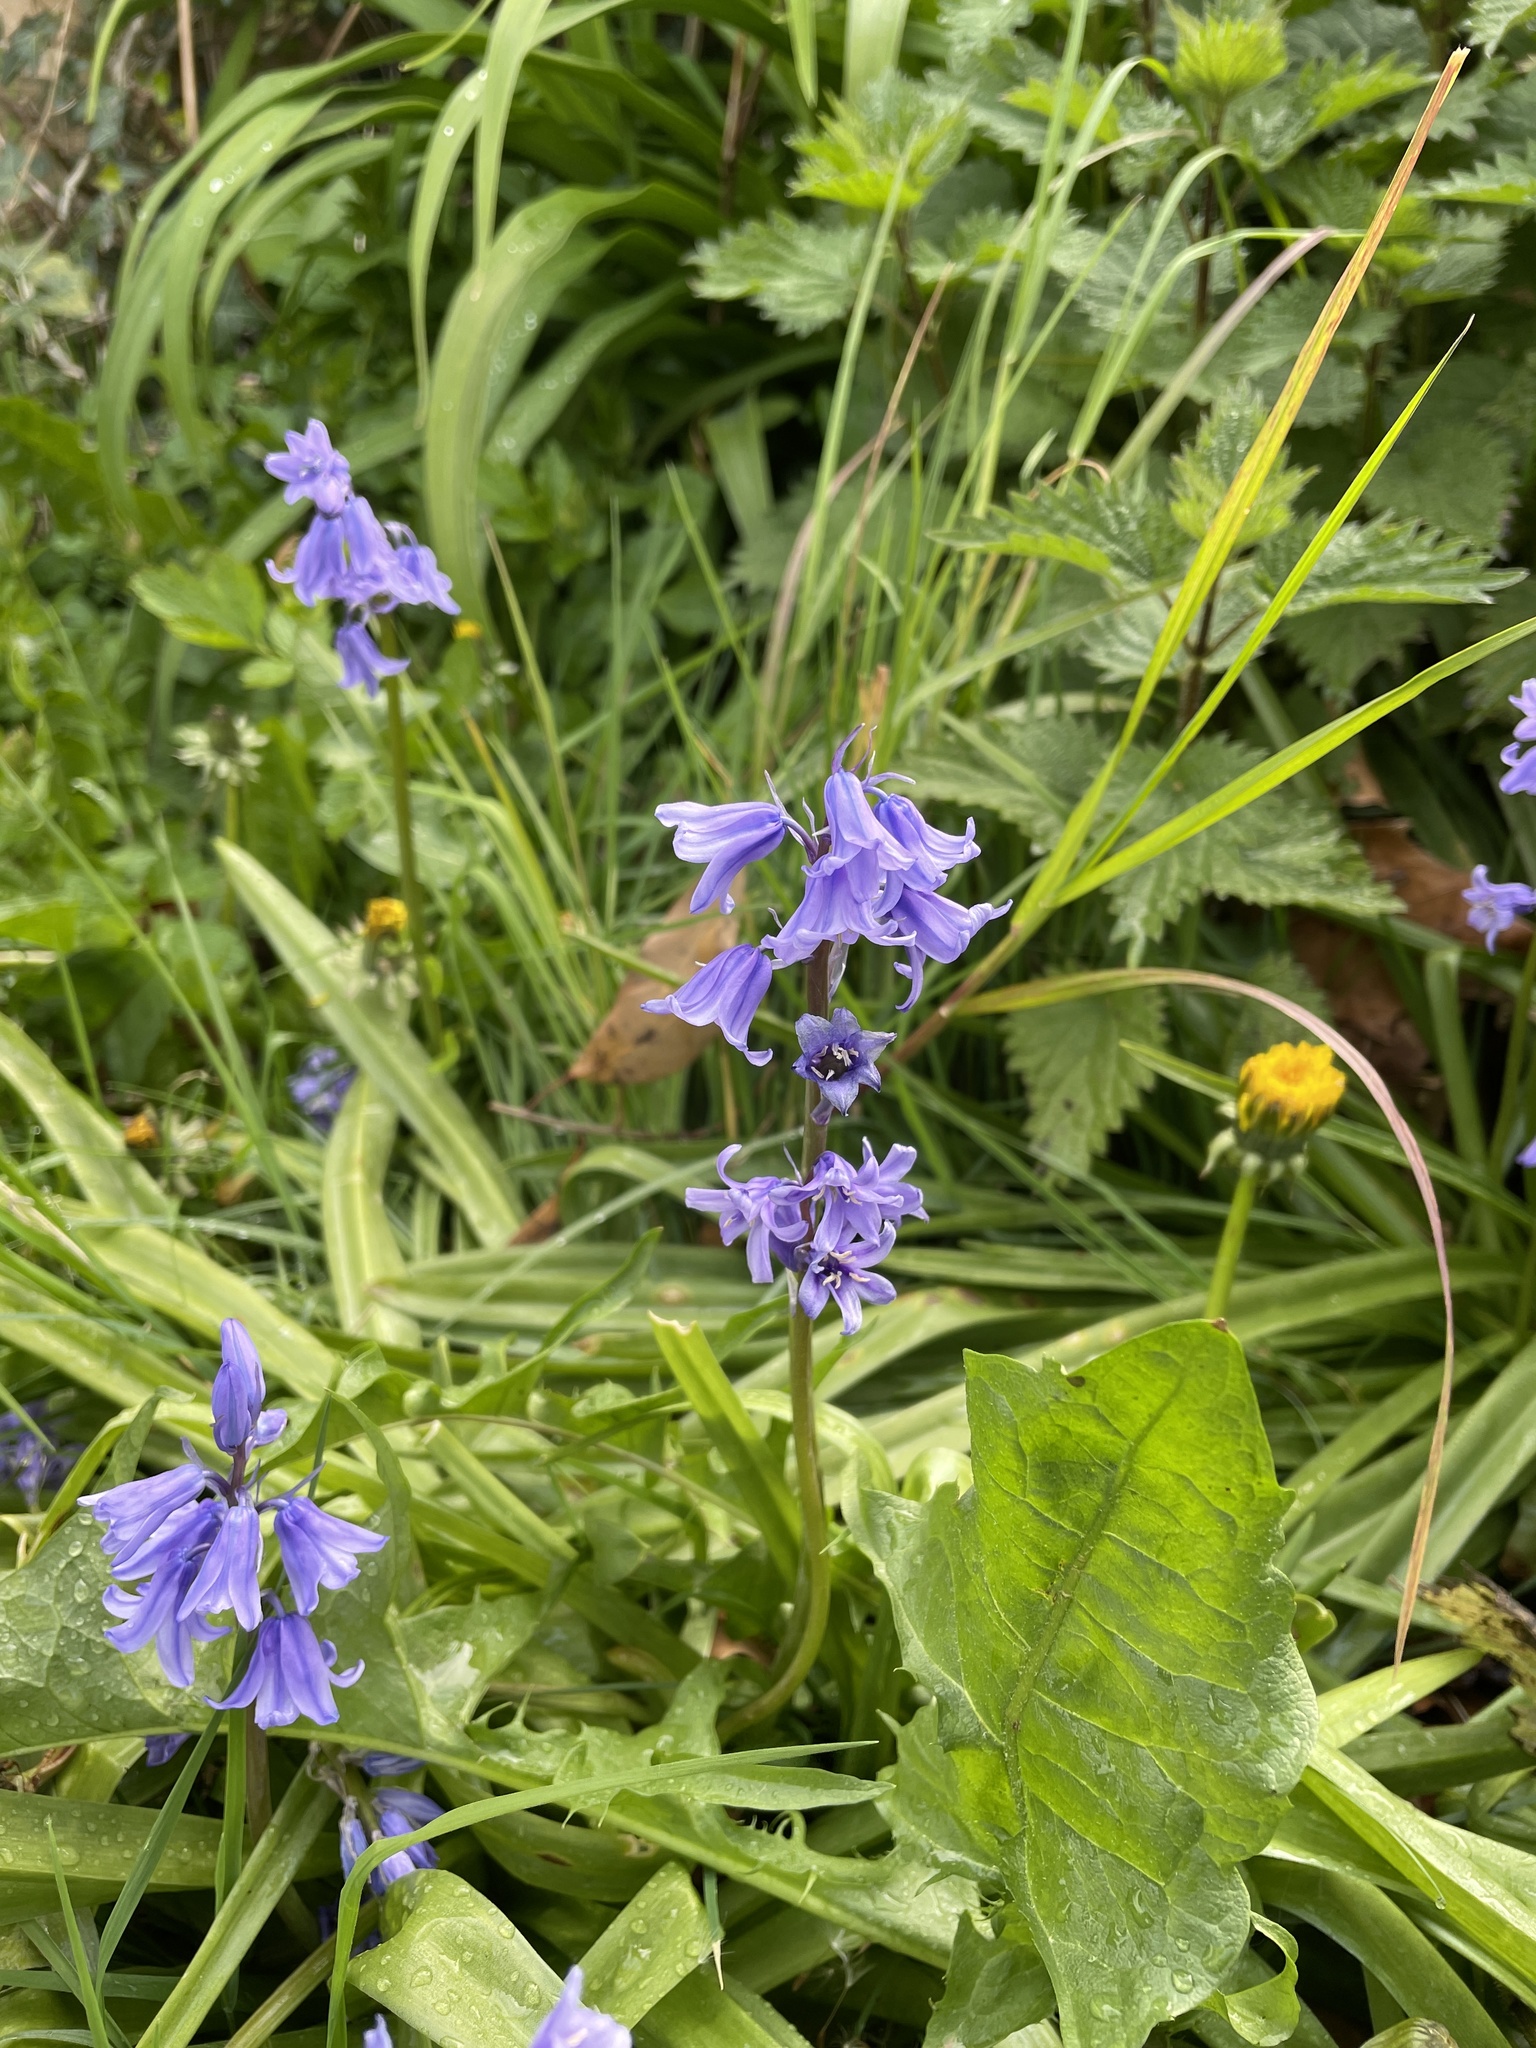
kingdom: Plantae
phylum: Tracheophyta
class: Liliopsida
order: Asparagales
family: Asparagaceae
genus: Hyacinthoides
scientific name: Hyacinthoides hispanica
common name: Spanish bluebell
